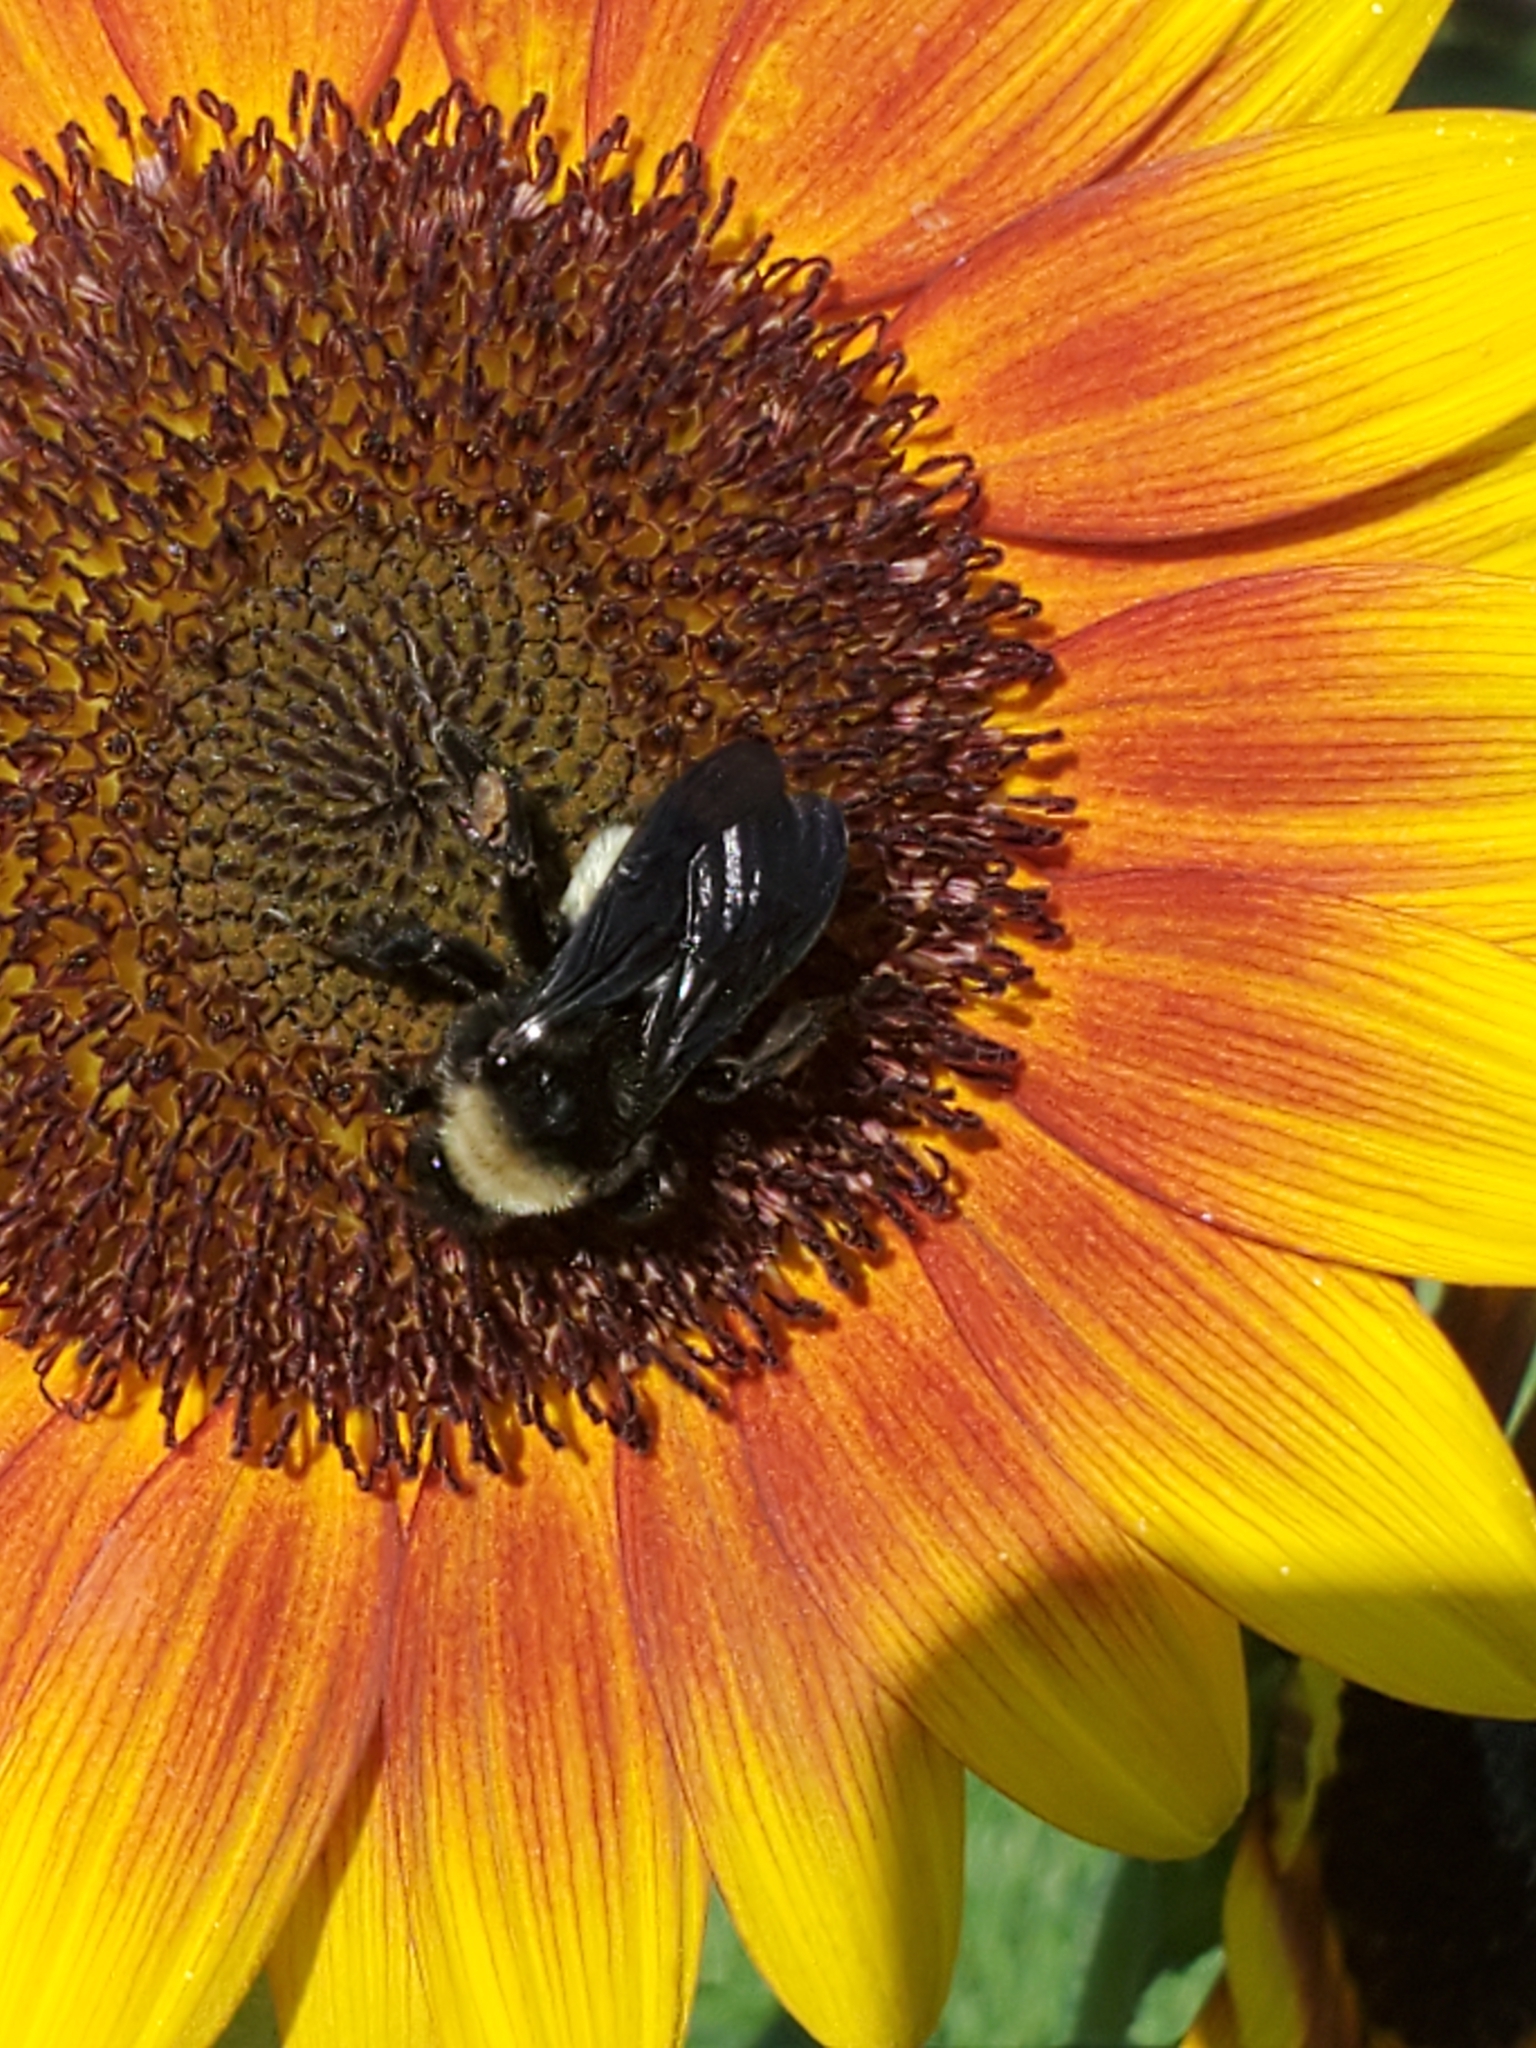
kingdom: Animalia
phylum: Arthropoda
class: Insecta
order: Hymenoptera
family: Apidae
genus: Bombus
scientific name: Bombus pensylvanicus
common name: Bumble bee
